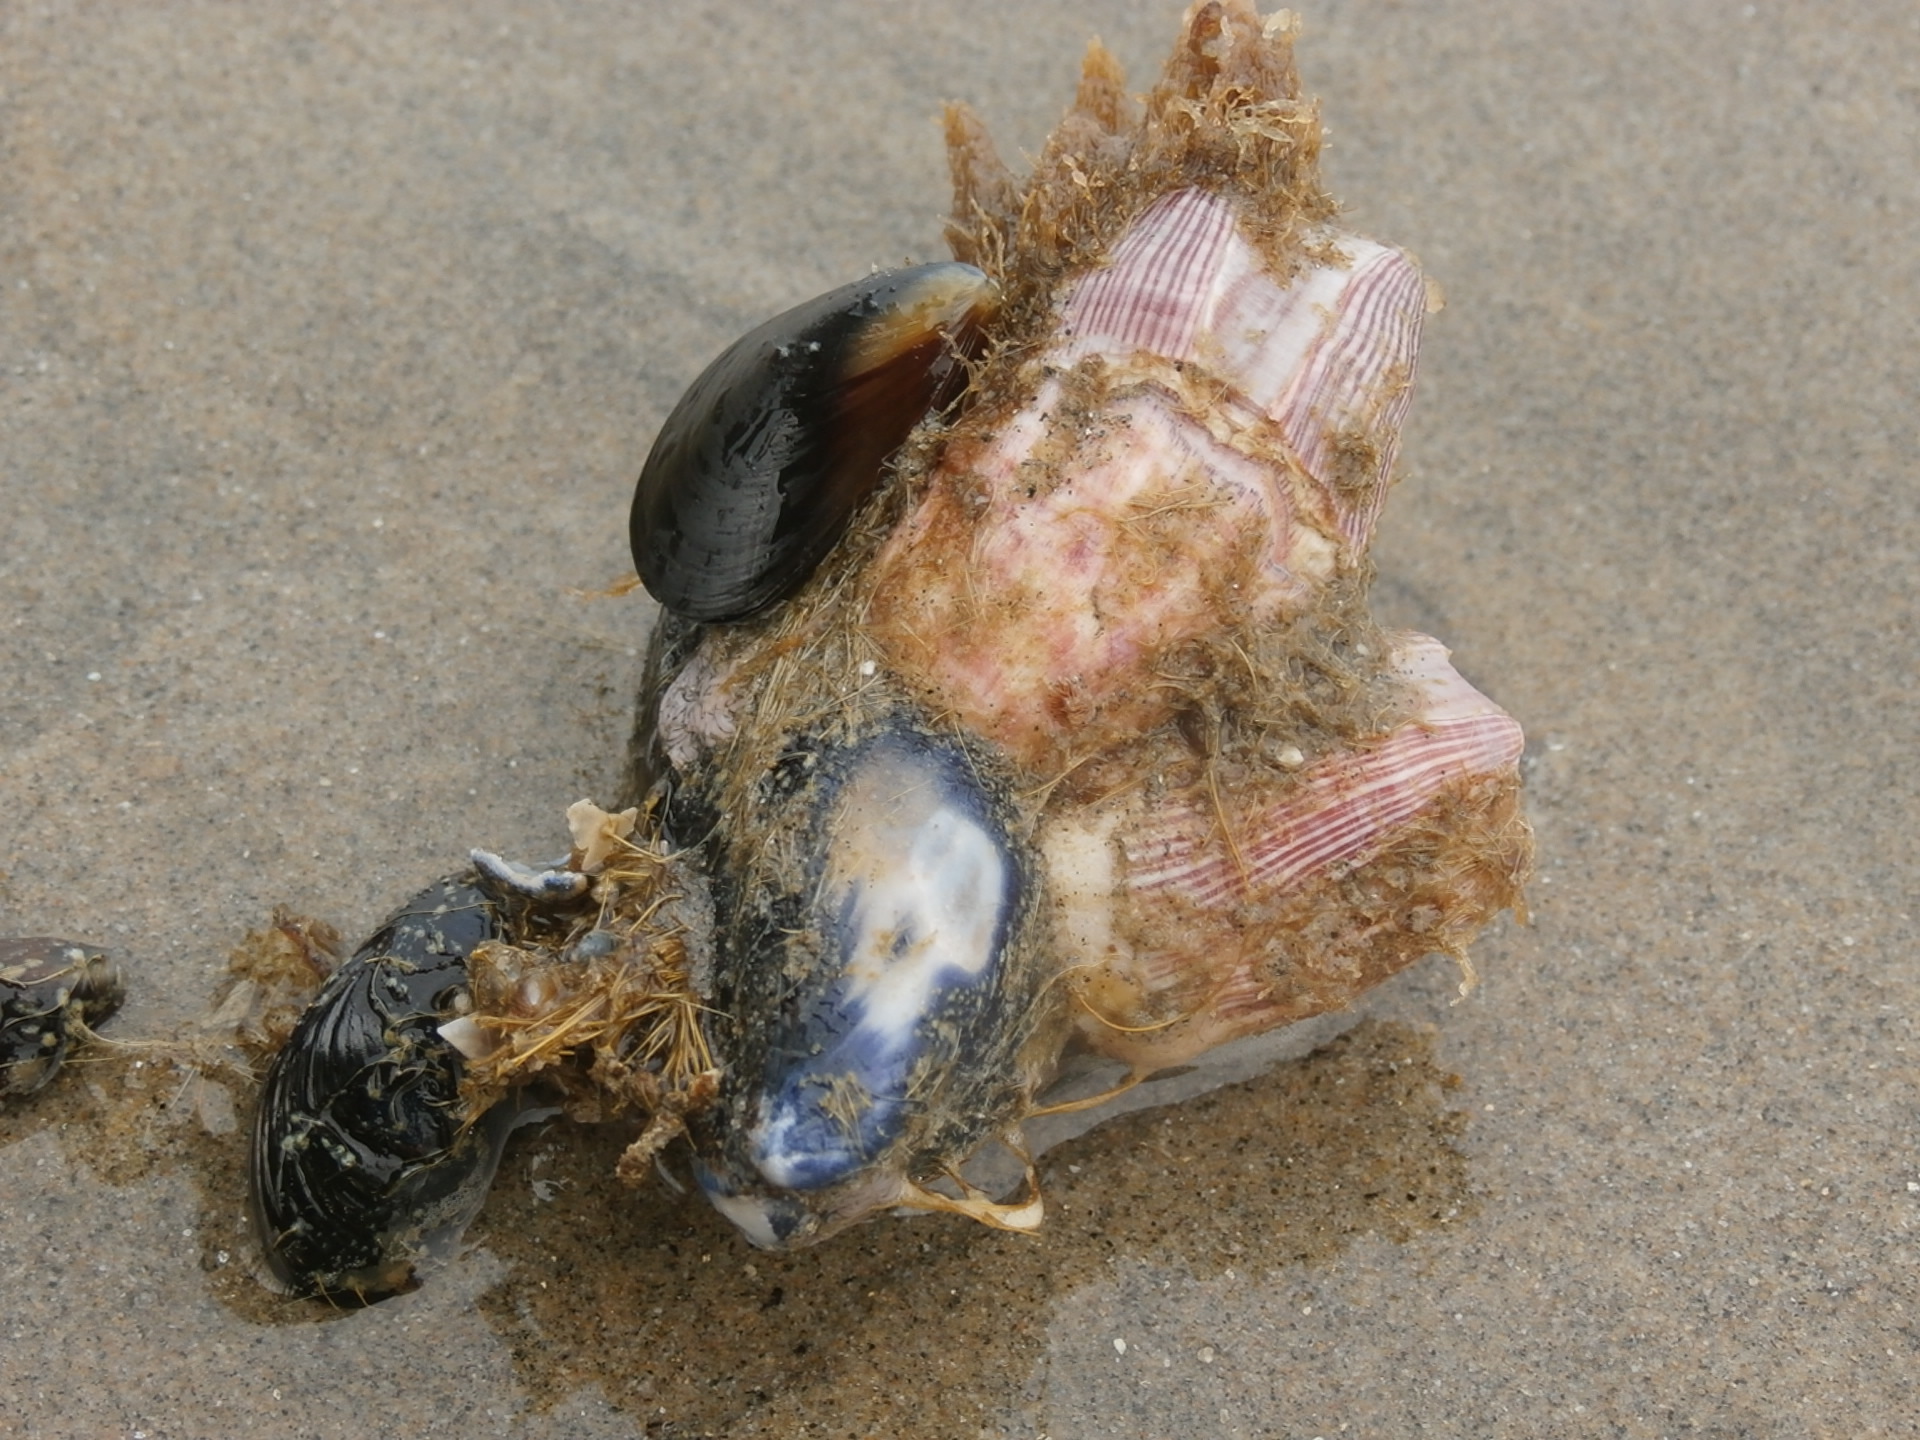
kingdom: Animalia
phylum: Arthropoda
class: Maxillopoda
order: Sessilia
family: Balanidae
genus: Megabalanus
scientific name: Megabalanus californicus
